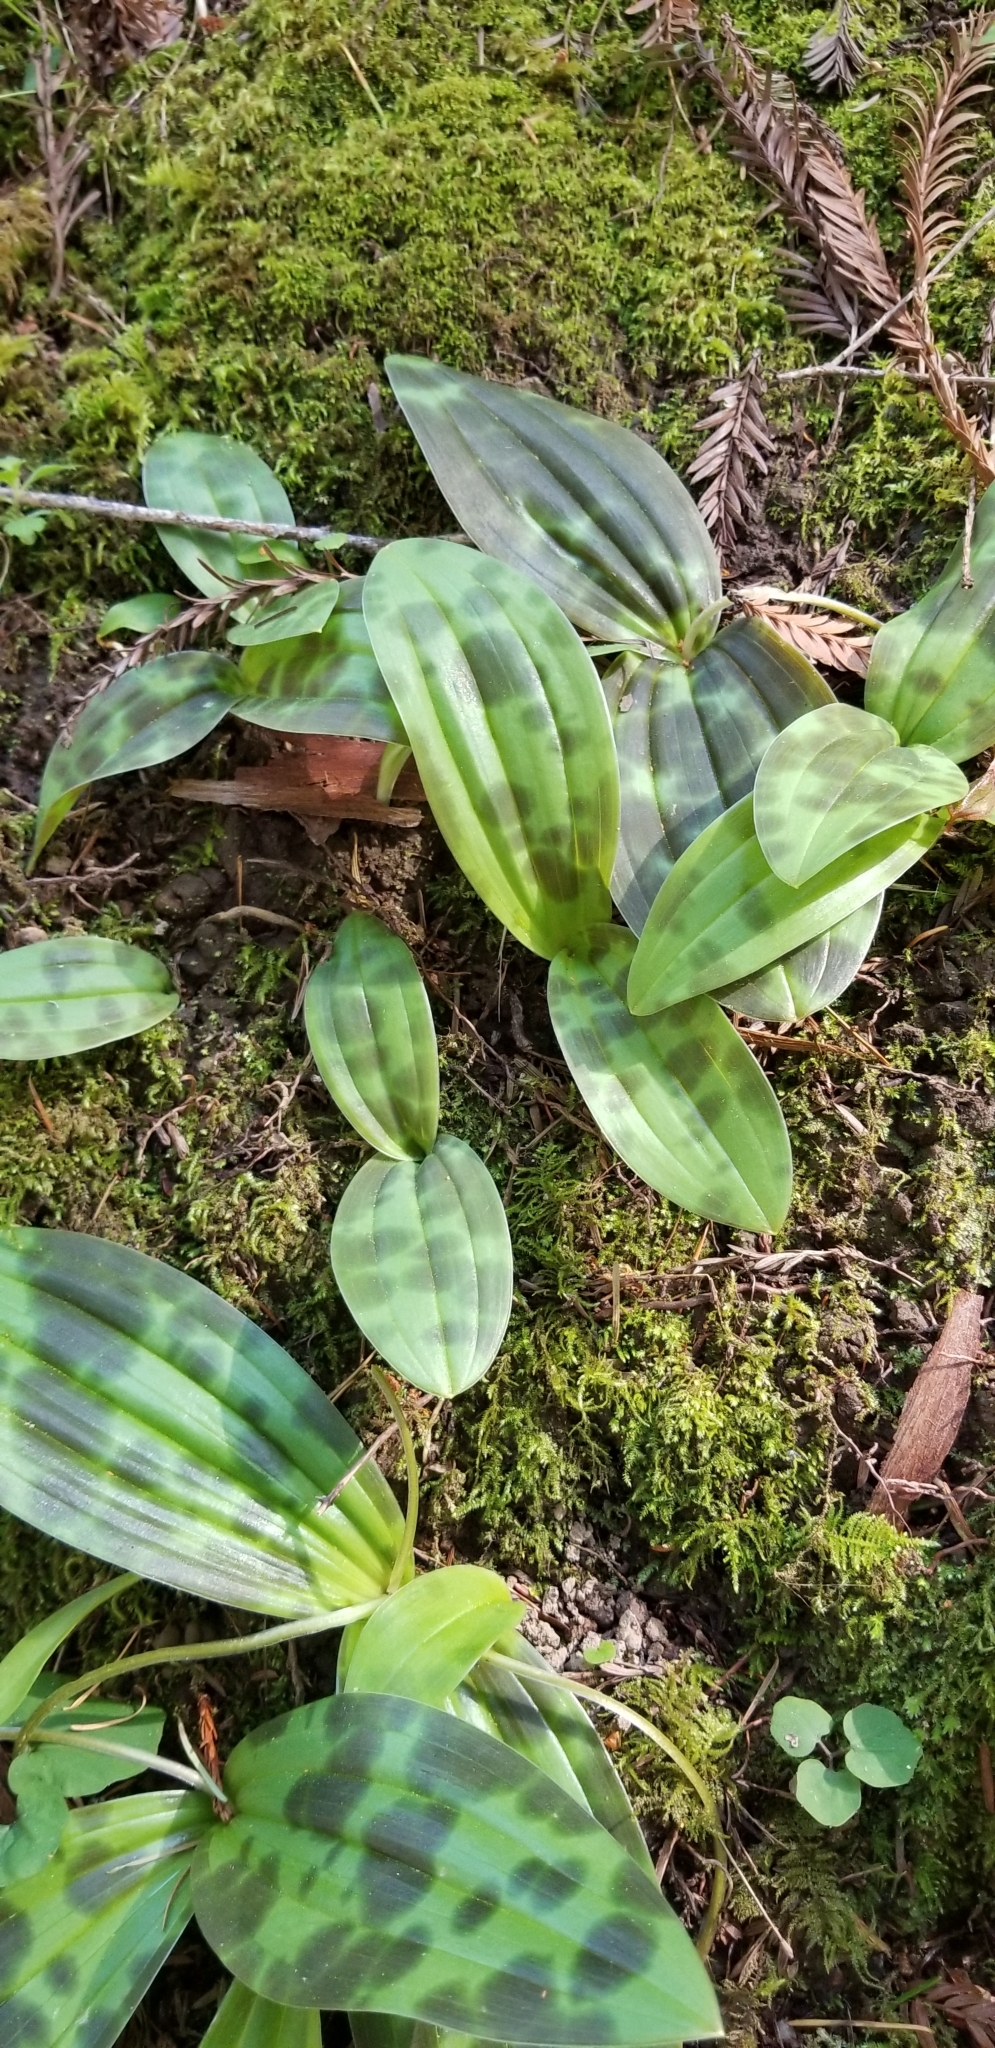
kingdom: Plantae
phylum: Tracheophyta
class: Liliopsida
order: Liliales
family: Liliaceae
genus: Scoliopus
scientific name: Scoliopus bigelovii
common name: Foetid adder's-tongue
